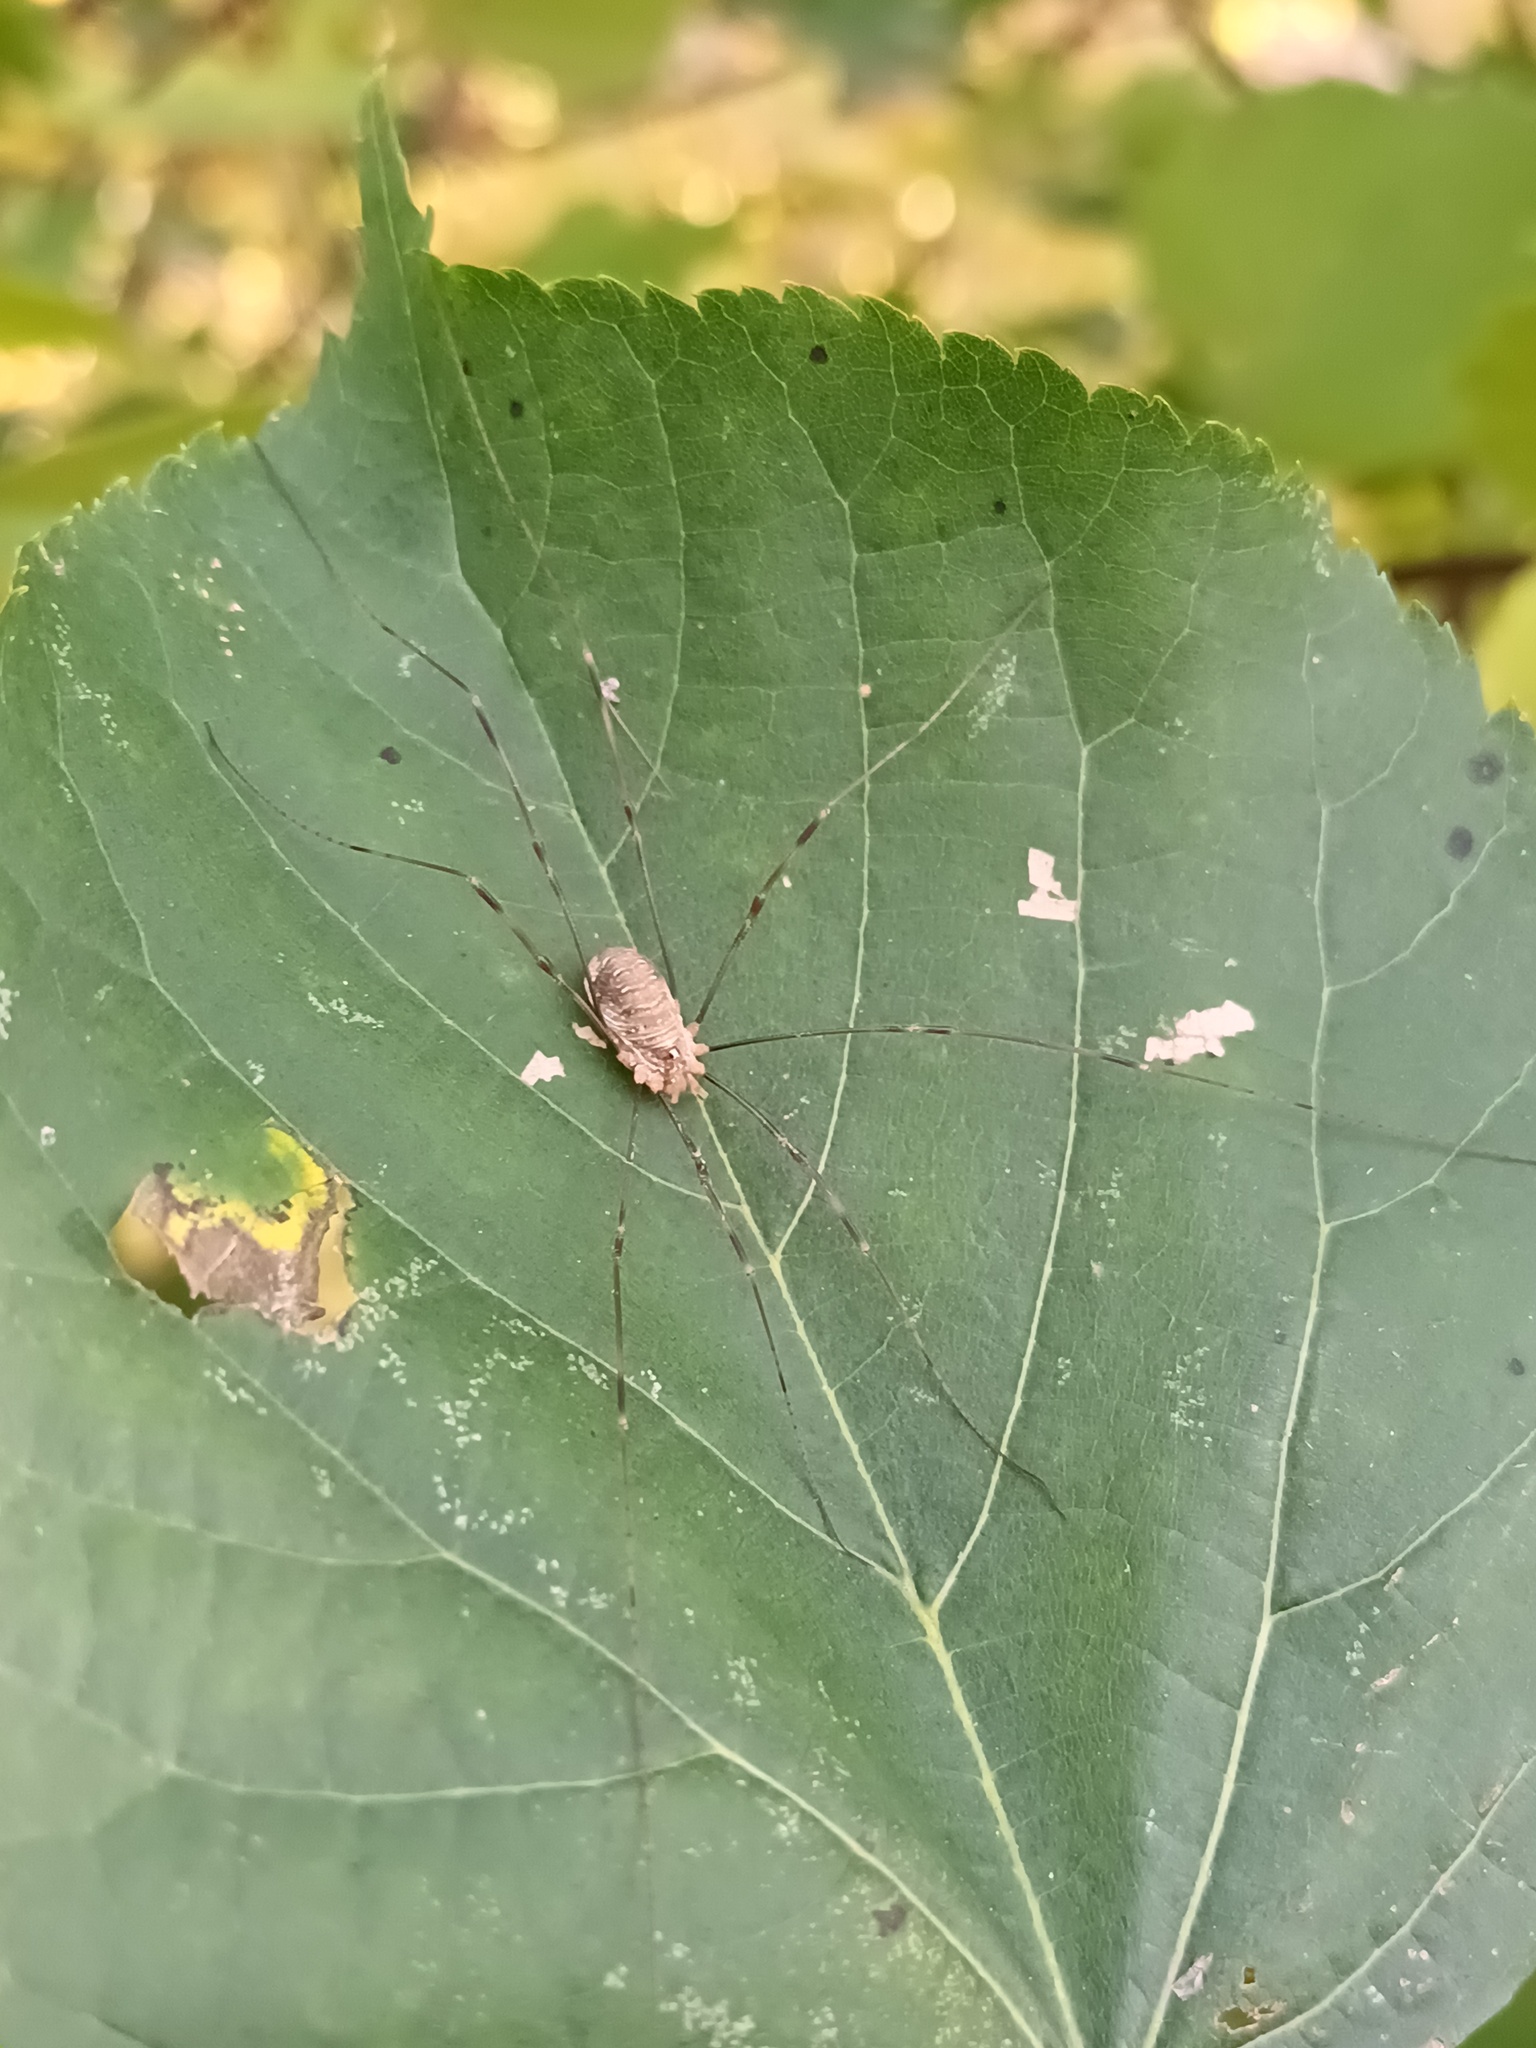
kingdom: Animalia
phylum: Arthropoda
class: Arachnida
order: Opiliones
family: Phalangiidae
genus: Opilio
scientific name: Opilio canestrinii
